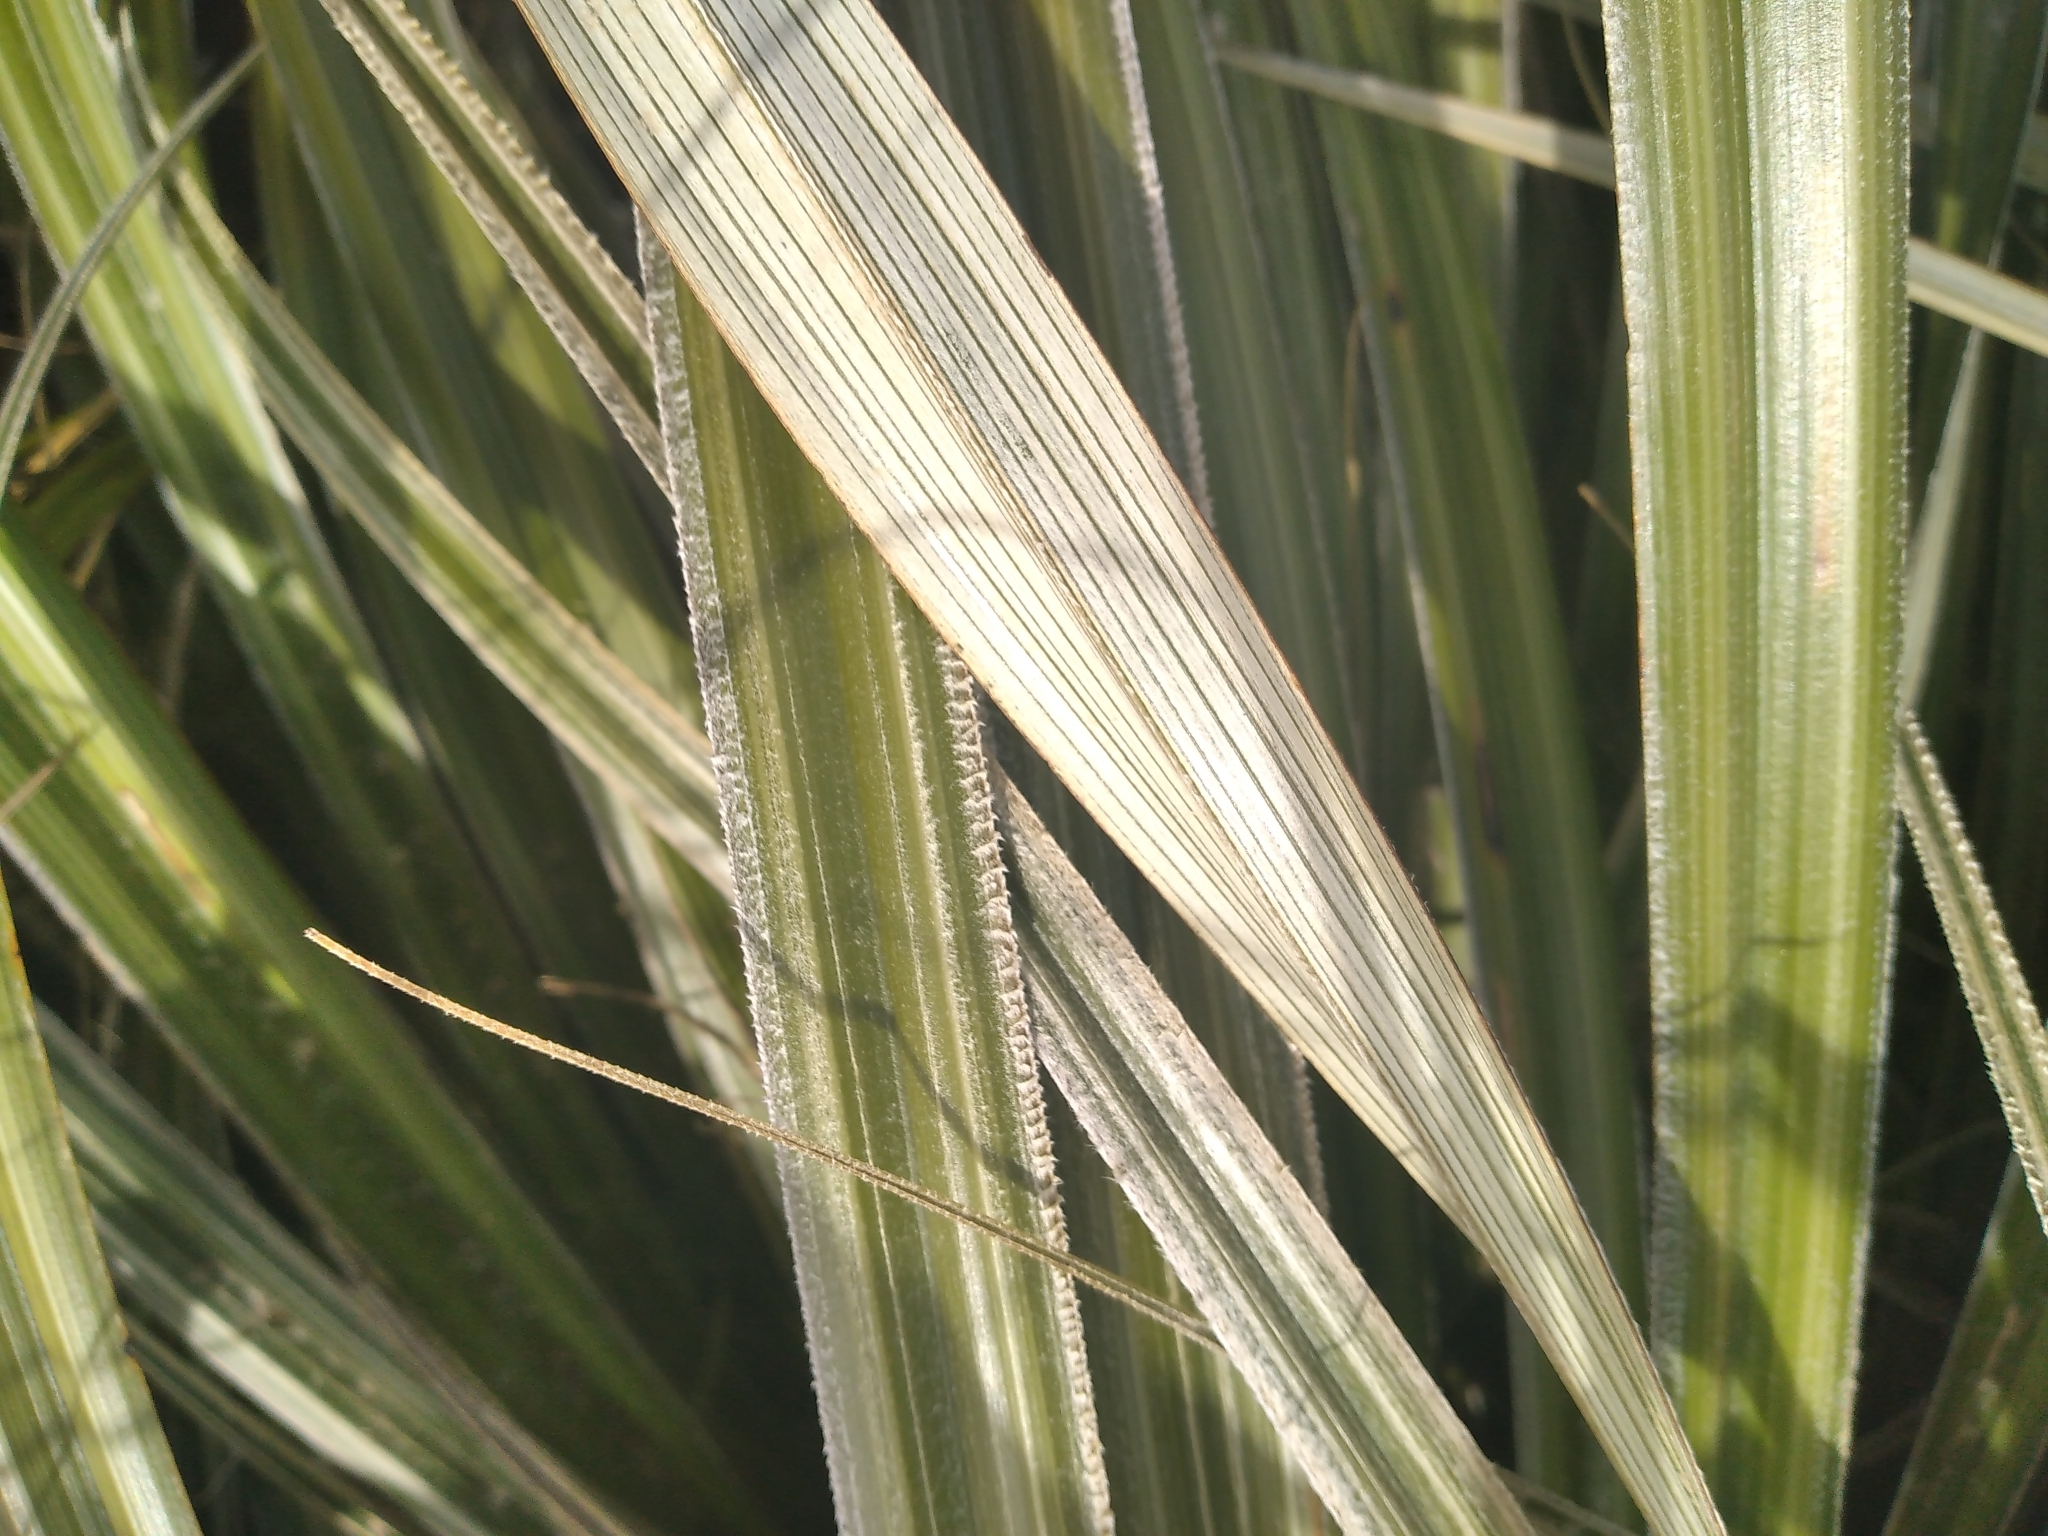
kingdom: Plantae
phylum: Tracheophyta
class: Liliopsida
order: Asparagales
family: Asteliaceae
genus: Astelia
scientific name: Astelia nervosa
